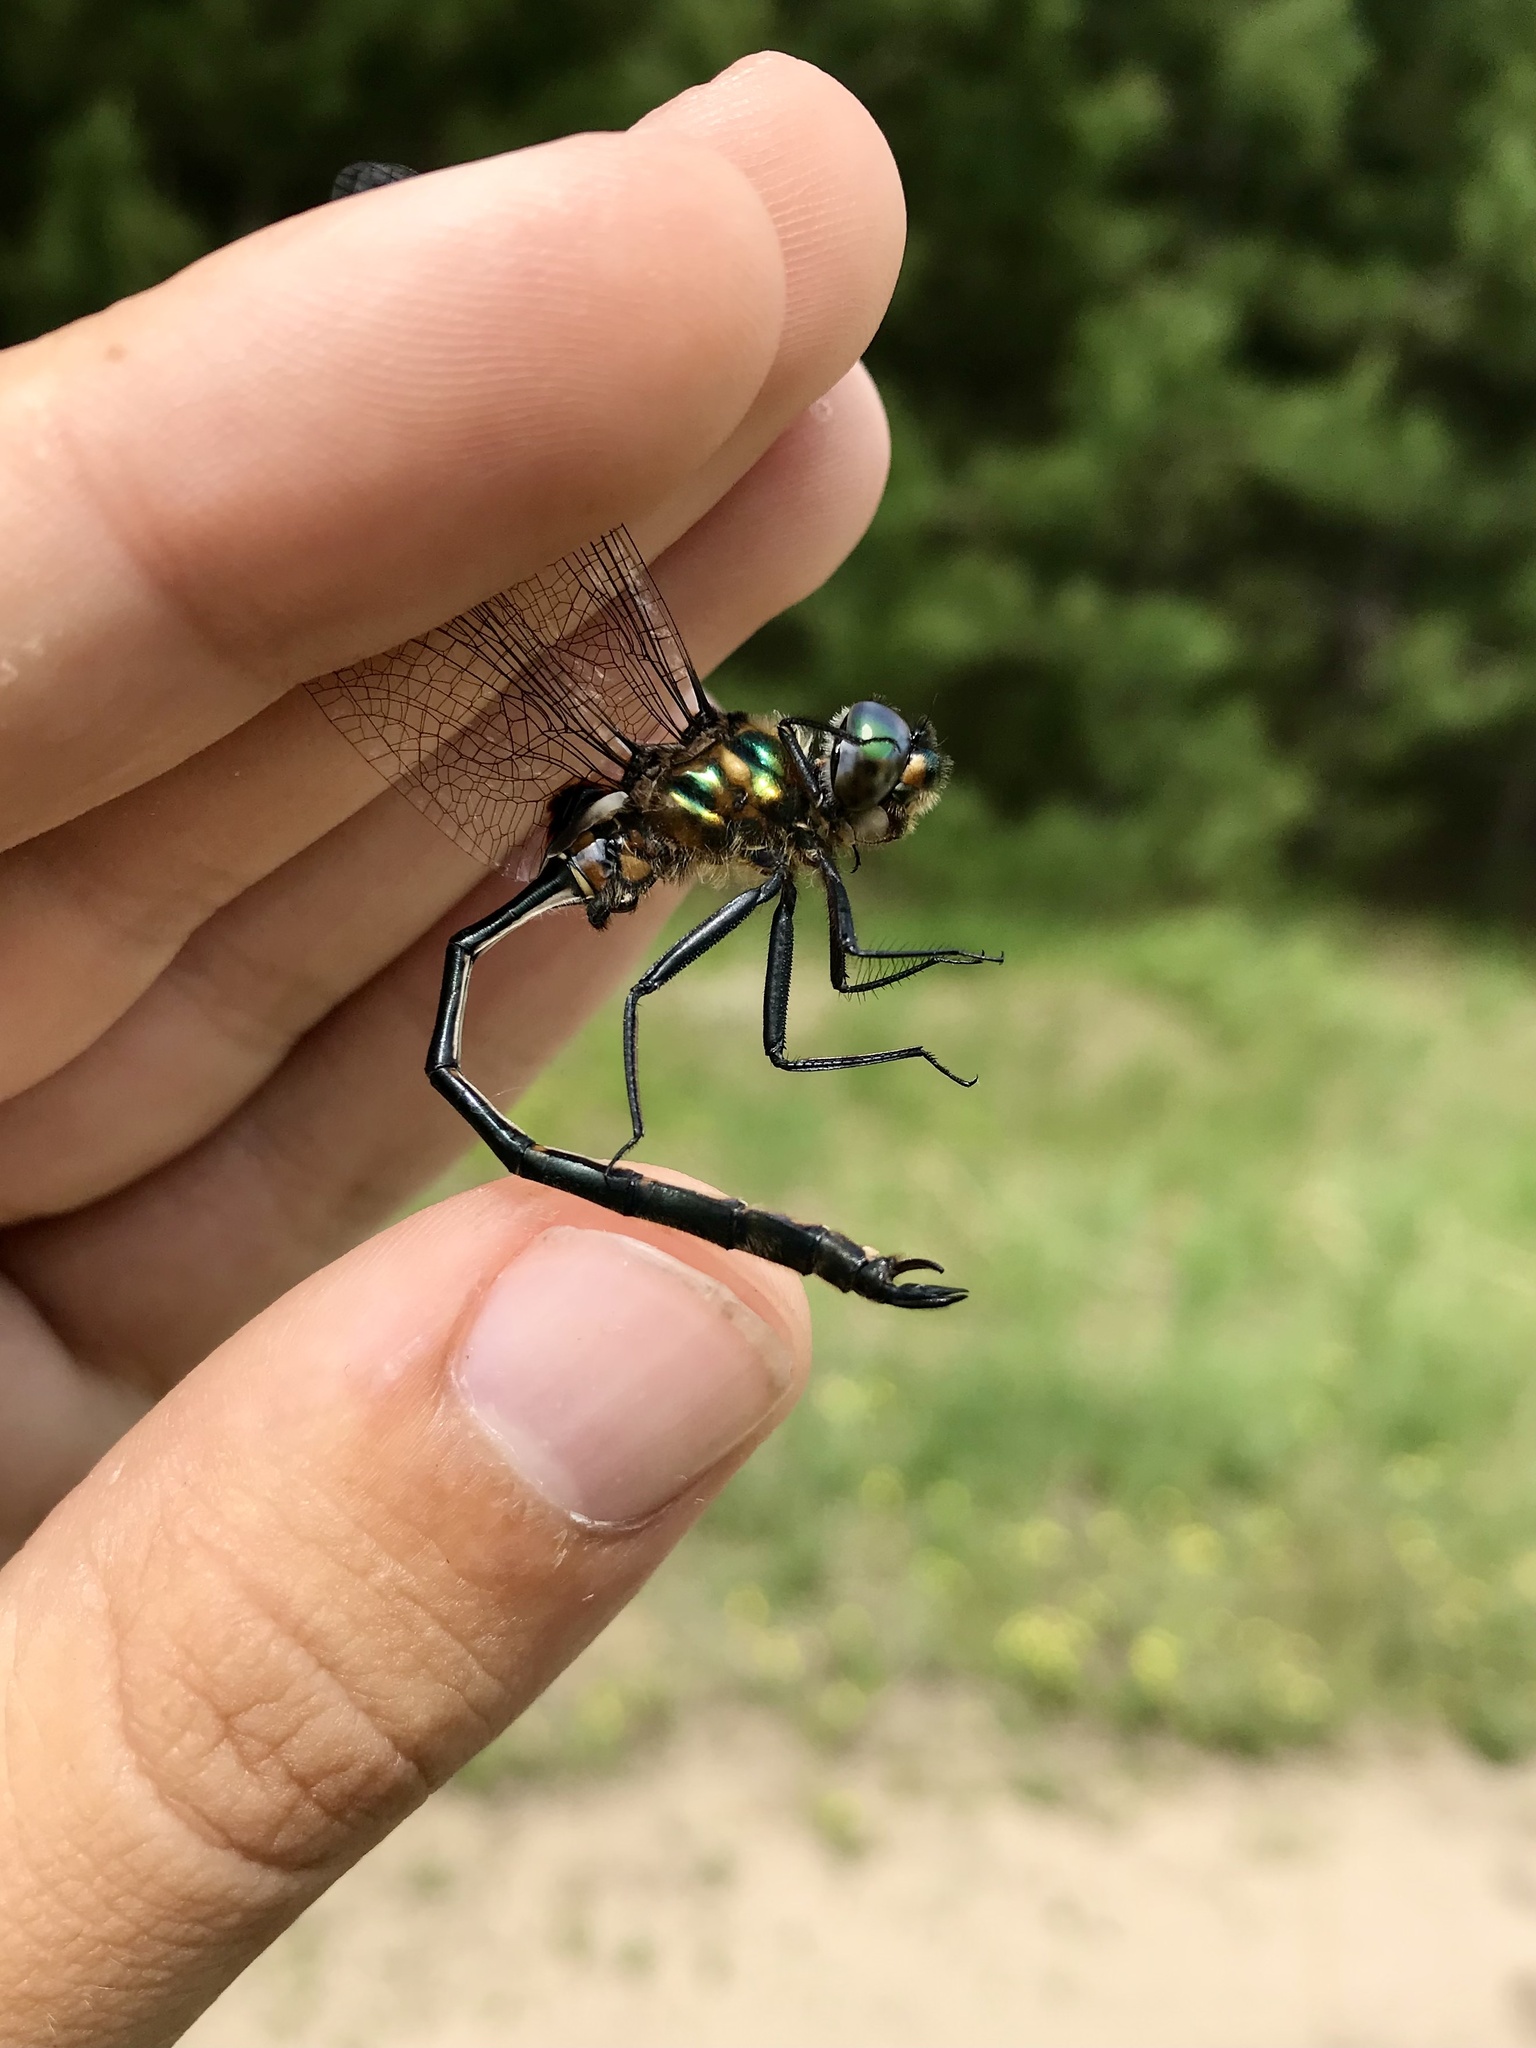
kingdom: Animalia
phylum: Arthropoda
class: Insecta
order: Odonata
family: Corduliidae
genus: Somatochlora
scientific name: Somatochlora franklini
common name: Delicate emerald
